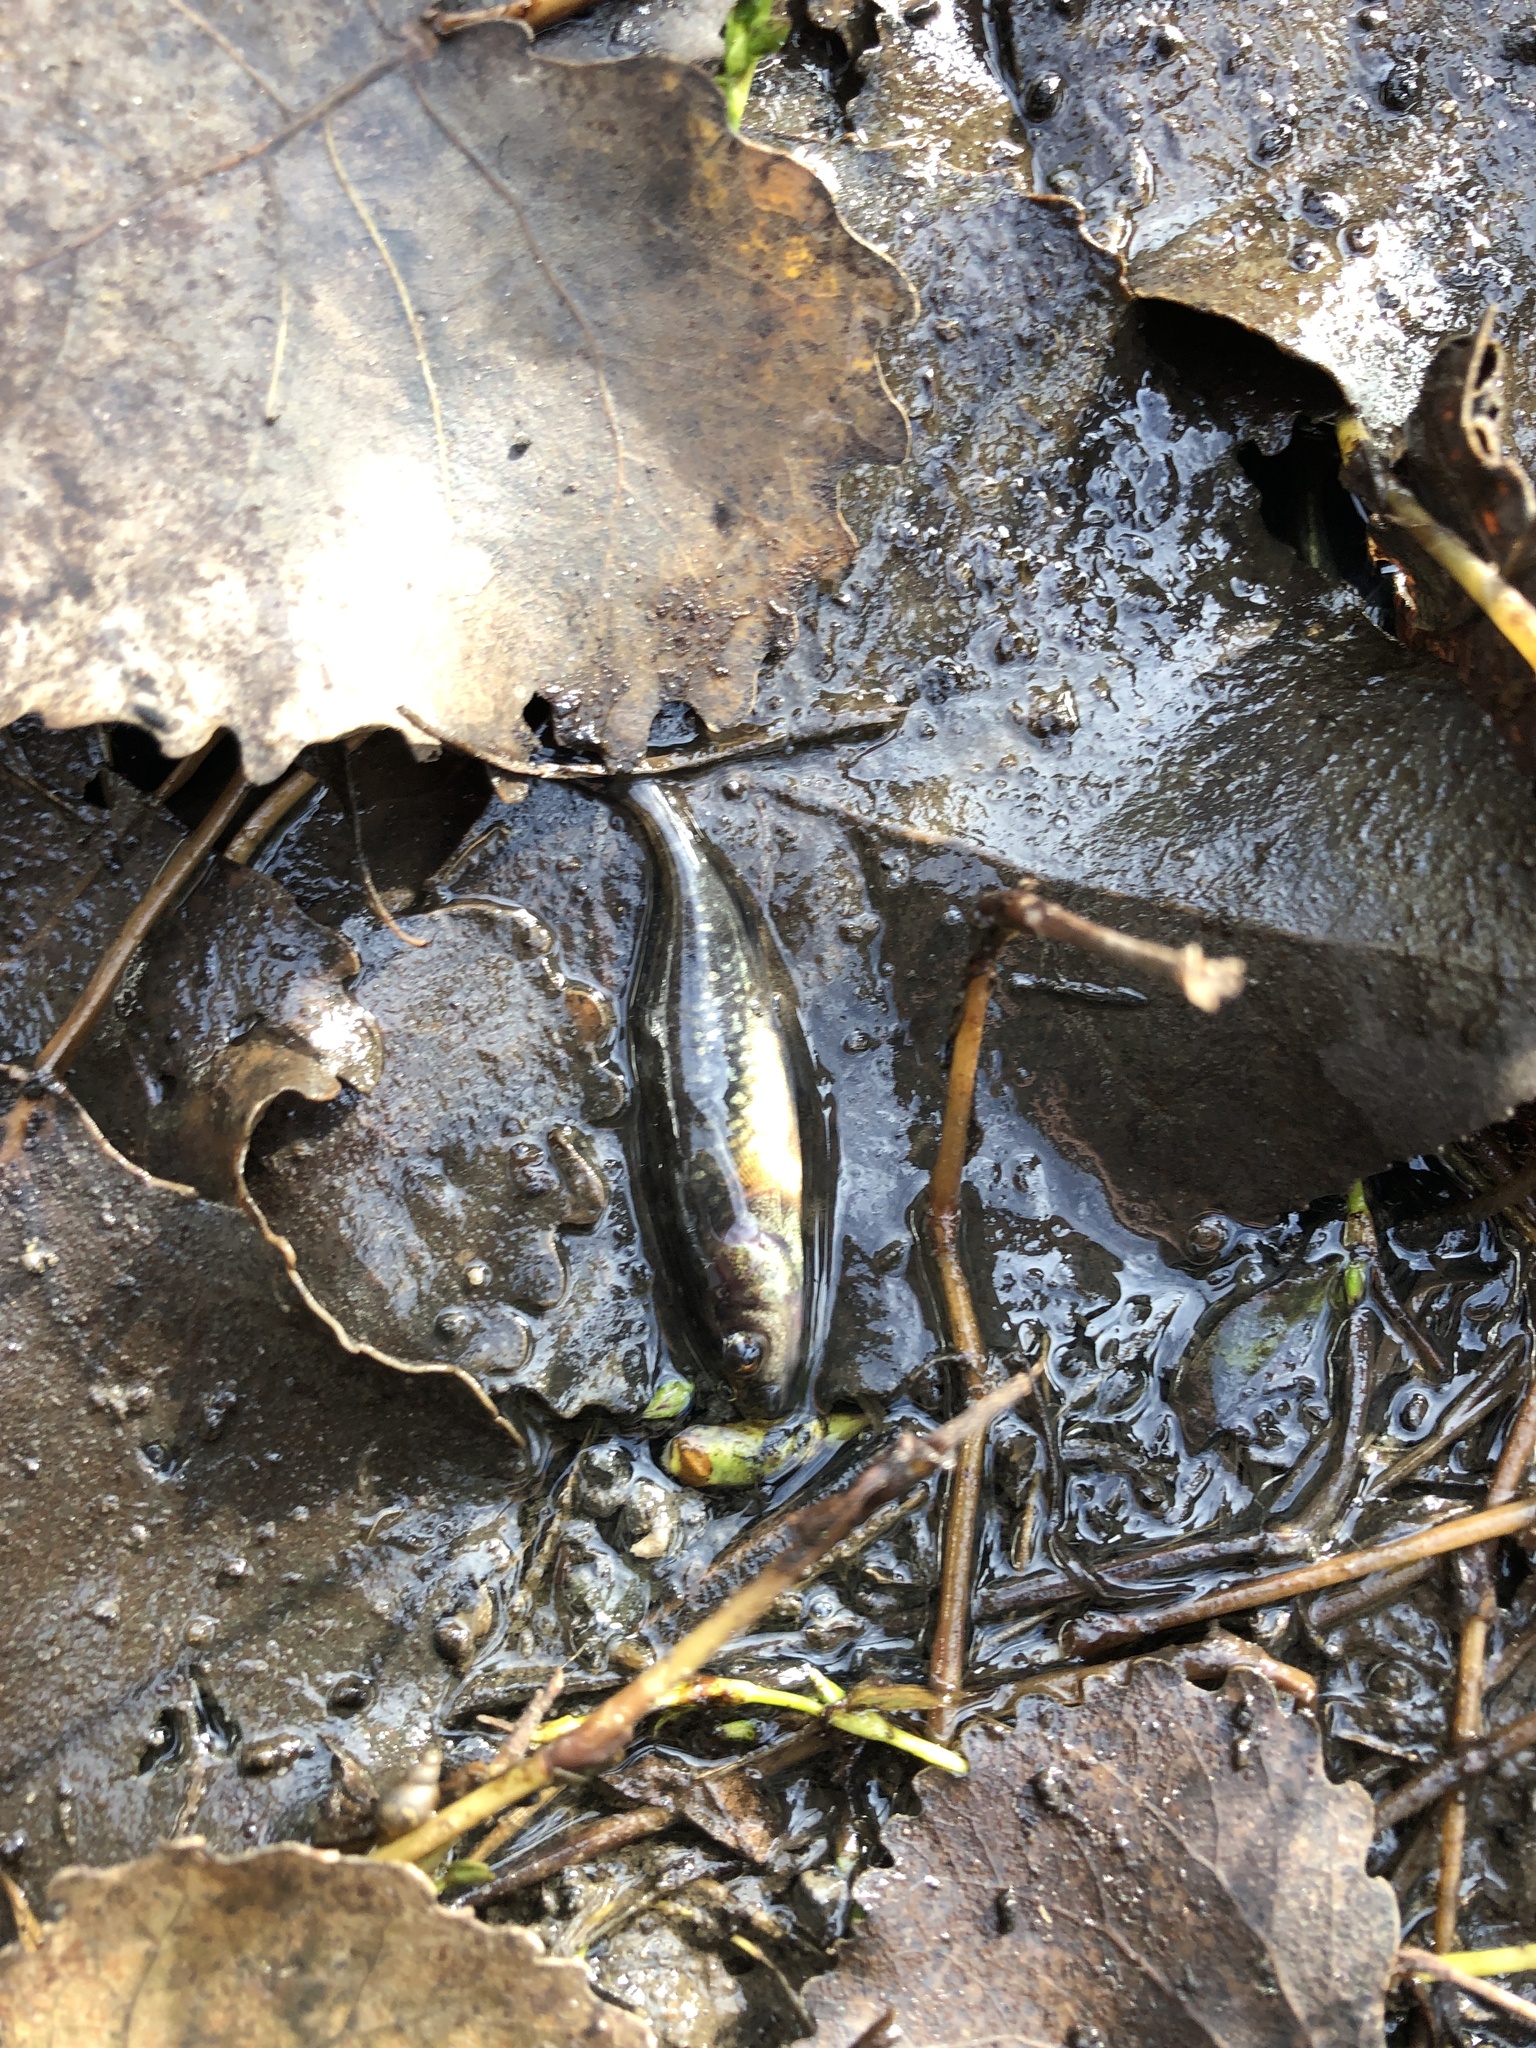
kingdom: Animalia
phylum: Chordata
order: Gasterosteiformes
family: Gasterosteidae
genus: Culaea
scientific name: Culaea inconstans
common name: Brook stickleback
